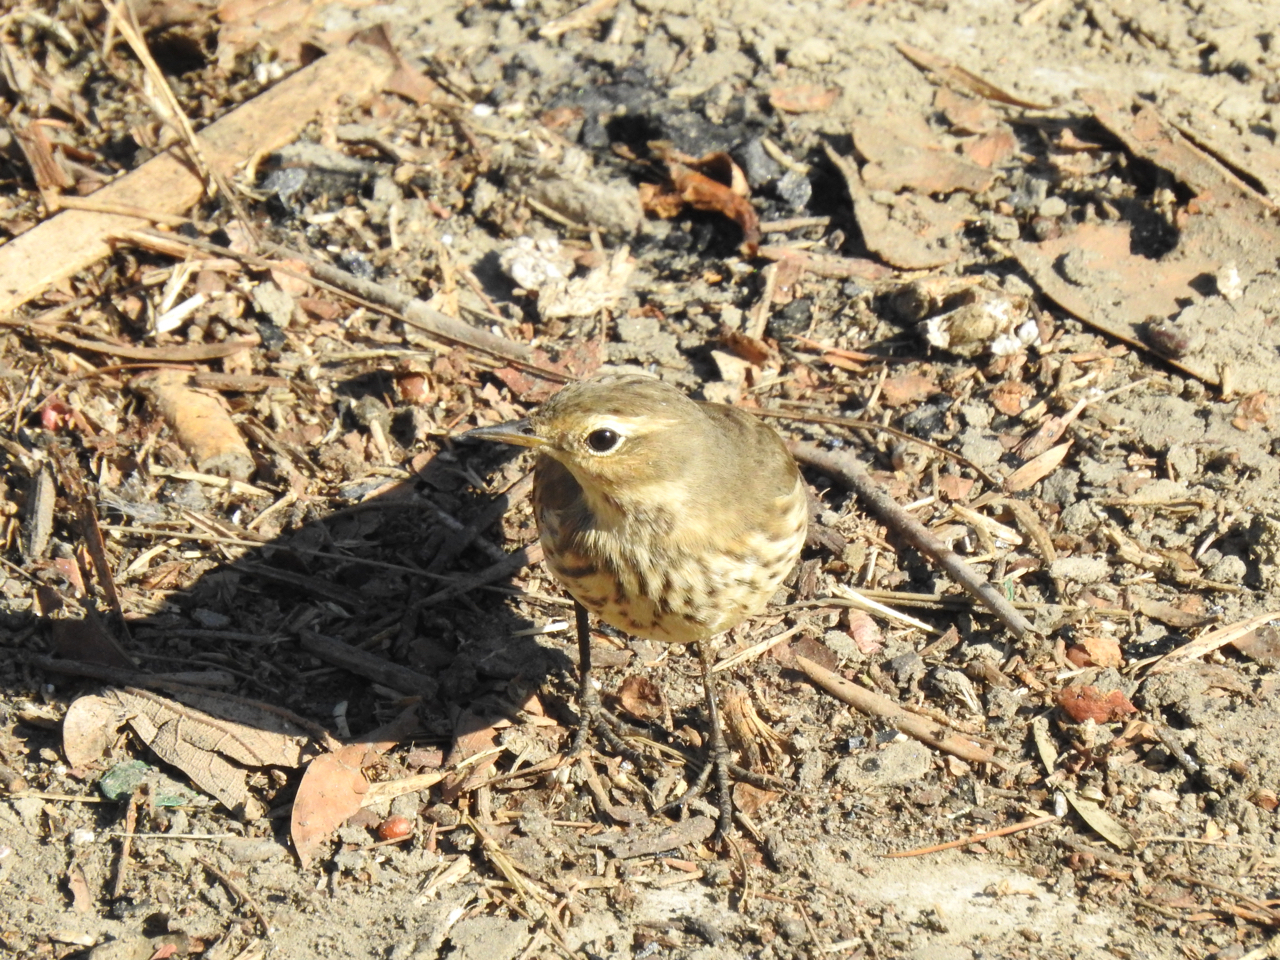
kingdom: Animalia
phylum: Chordata
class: Aves
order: Passeriformes
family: Motacillidae
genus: Anthus
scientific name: Anthus rubescens
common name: Buff-bellied pipit
